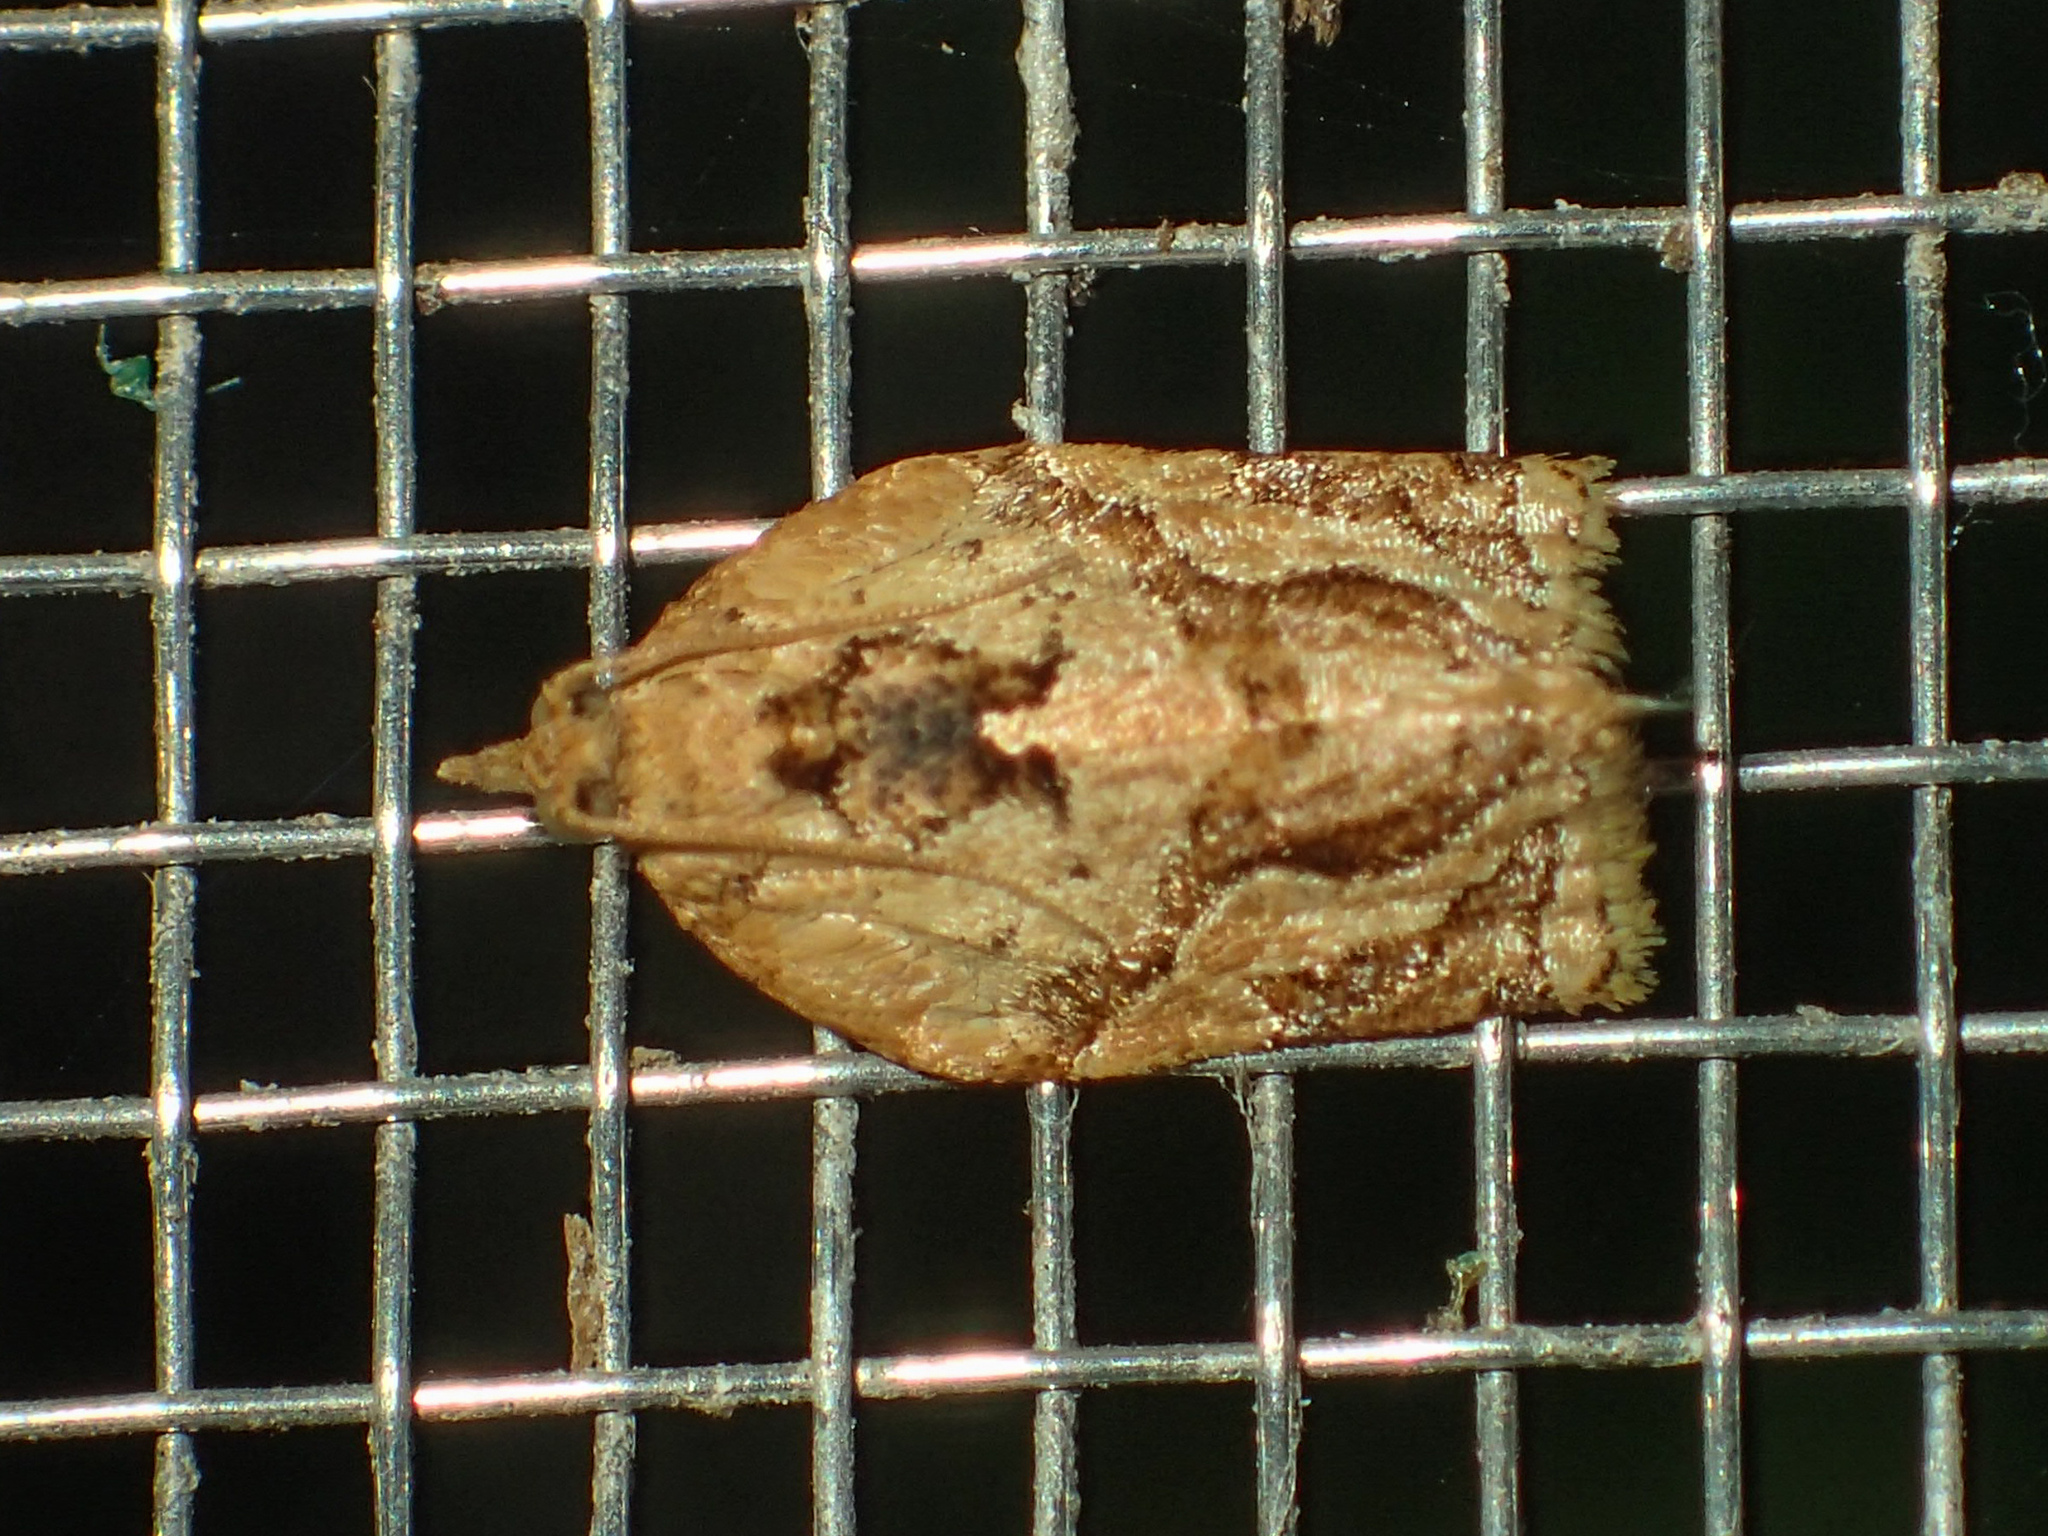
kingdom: Animalia
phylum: Arthropoda
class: Insecta
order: Lepidoptera
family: Tortricidae
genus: Adoxophyes
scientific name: Adoxophyes privatana
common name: Asian orchid tortrix
